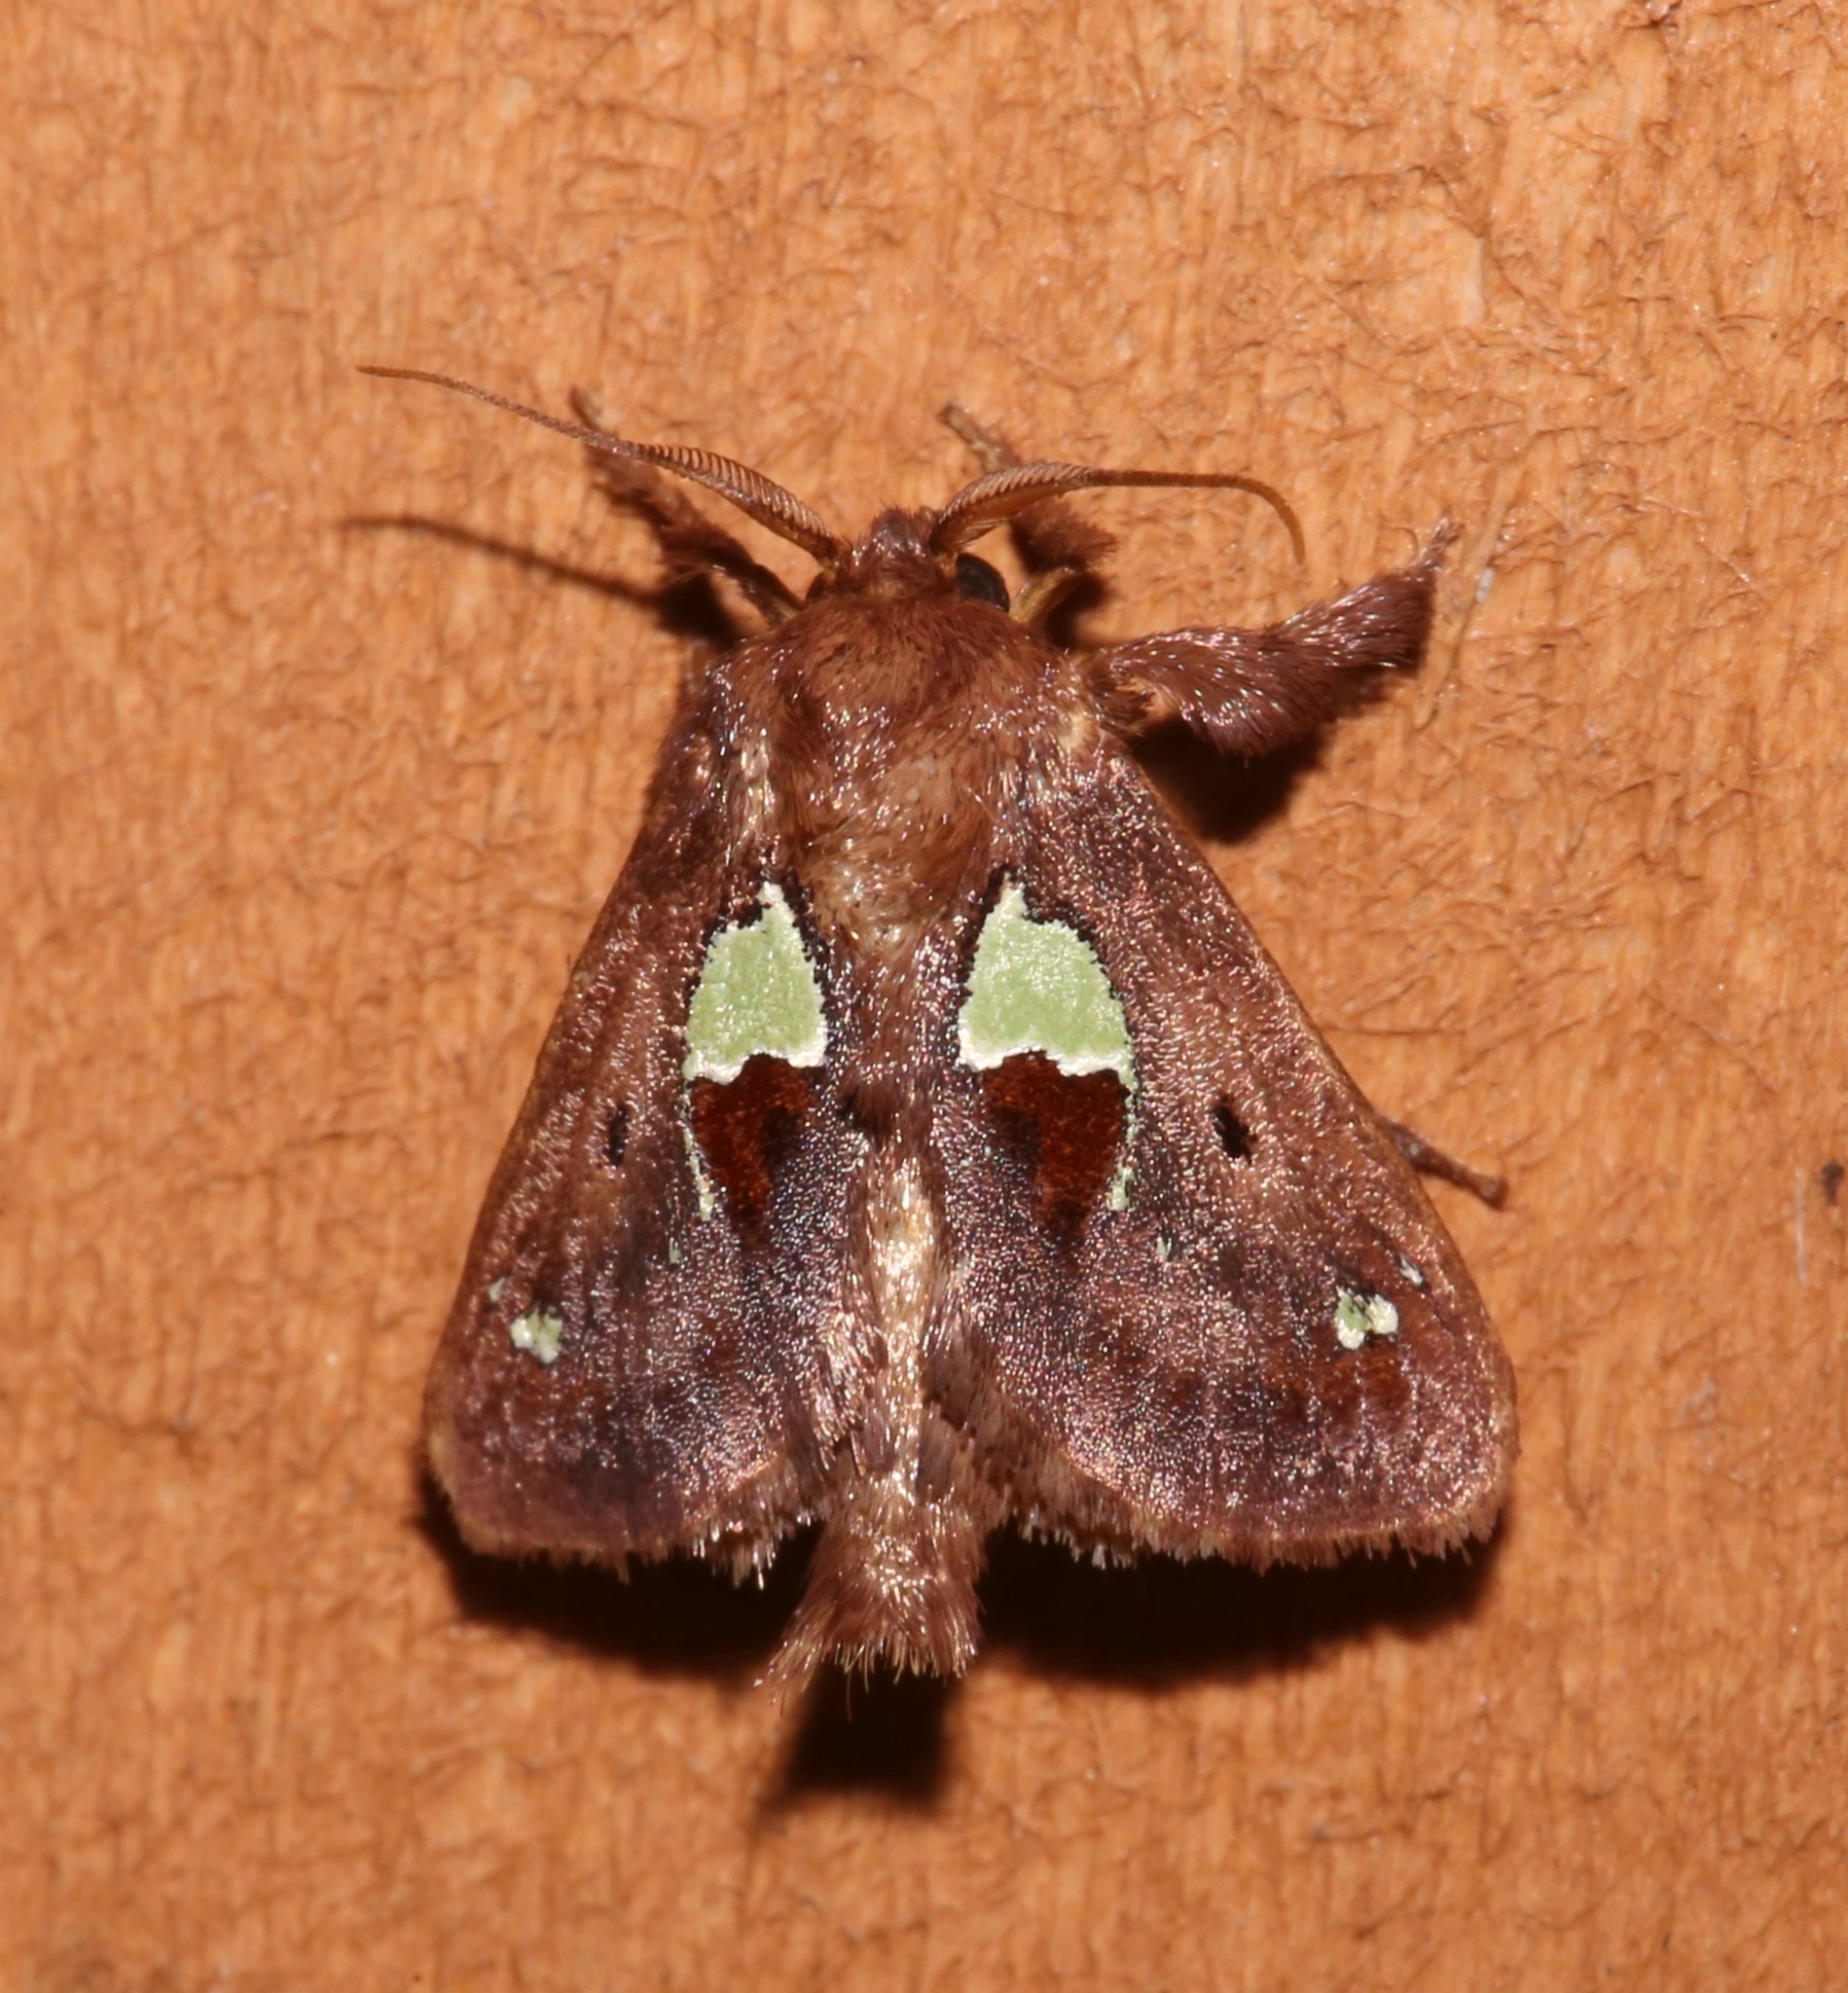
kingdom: Animalia
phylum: Arthropoda
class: Insecta
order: Lepidoptera
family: Limacodidae
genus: Euclea
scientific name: Euclea delphinii
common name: Spiny oak-slug moth
